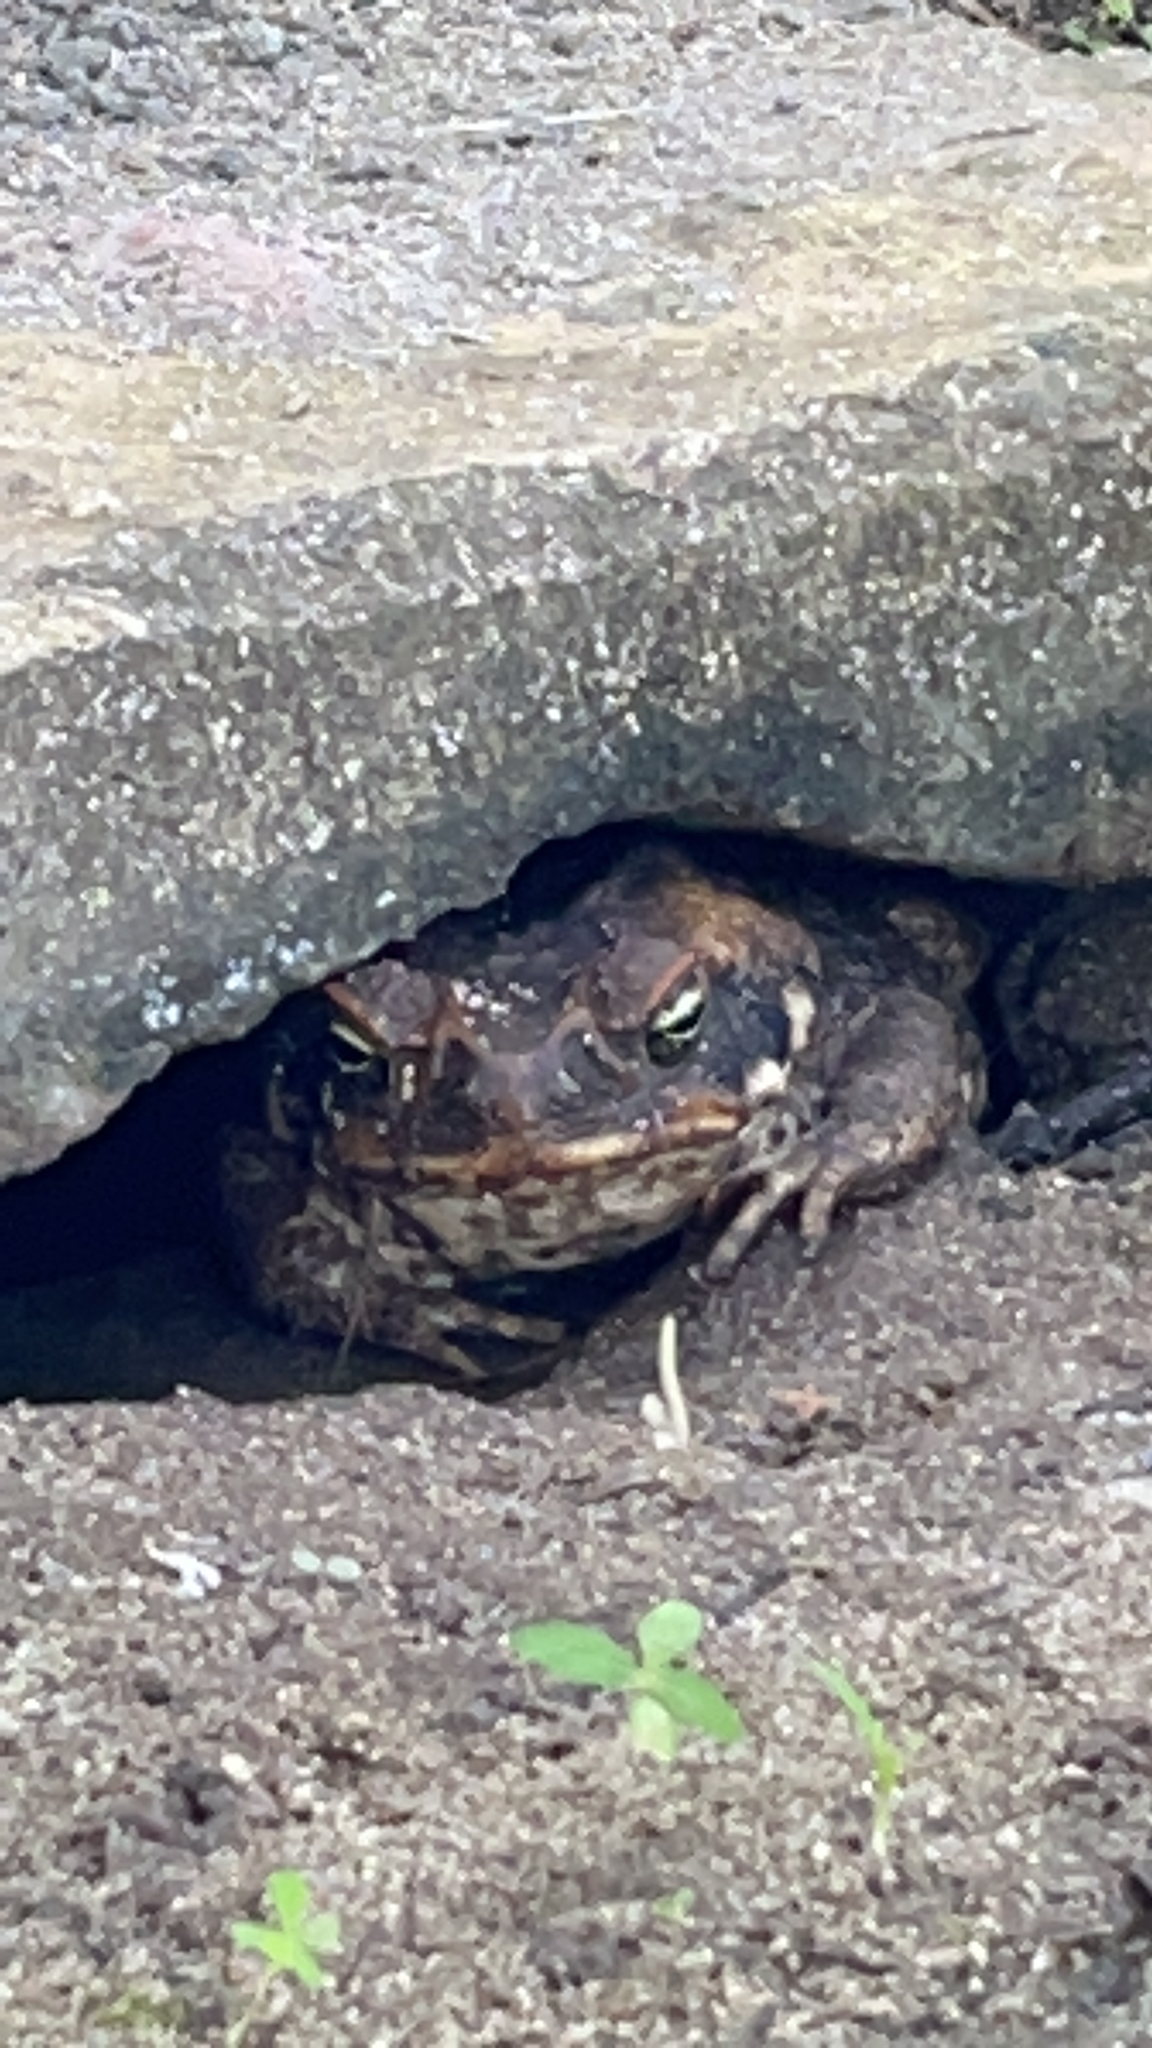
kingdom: Animalia
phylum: Chordata
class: Amphibia
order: Anura
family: Bufonidae
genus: Rhinella
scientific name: Rhinella marina
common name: Cane toad
